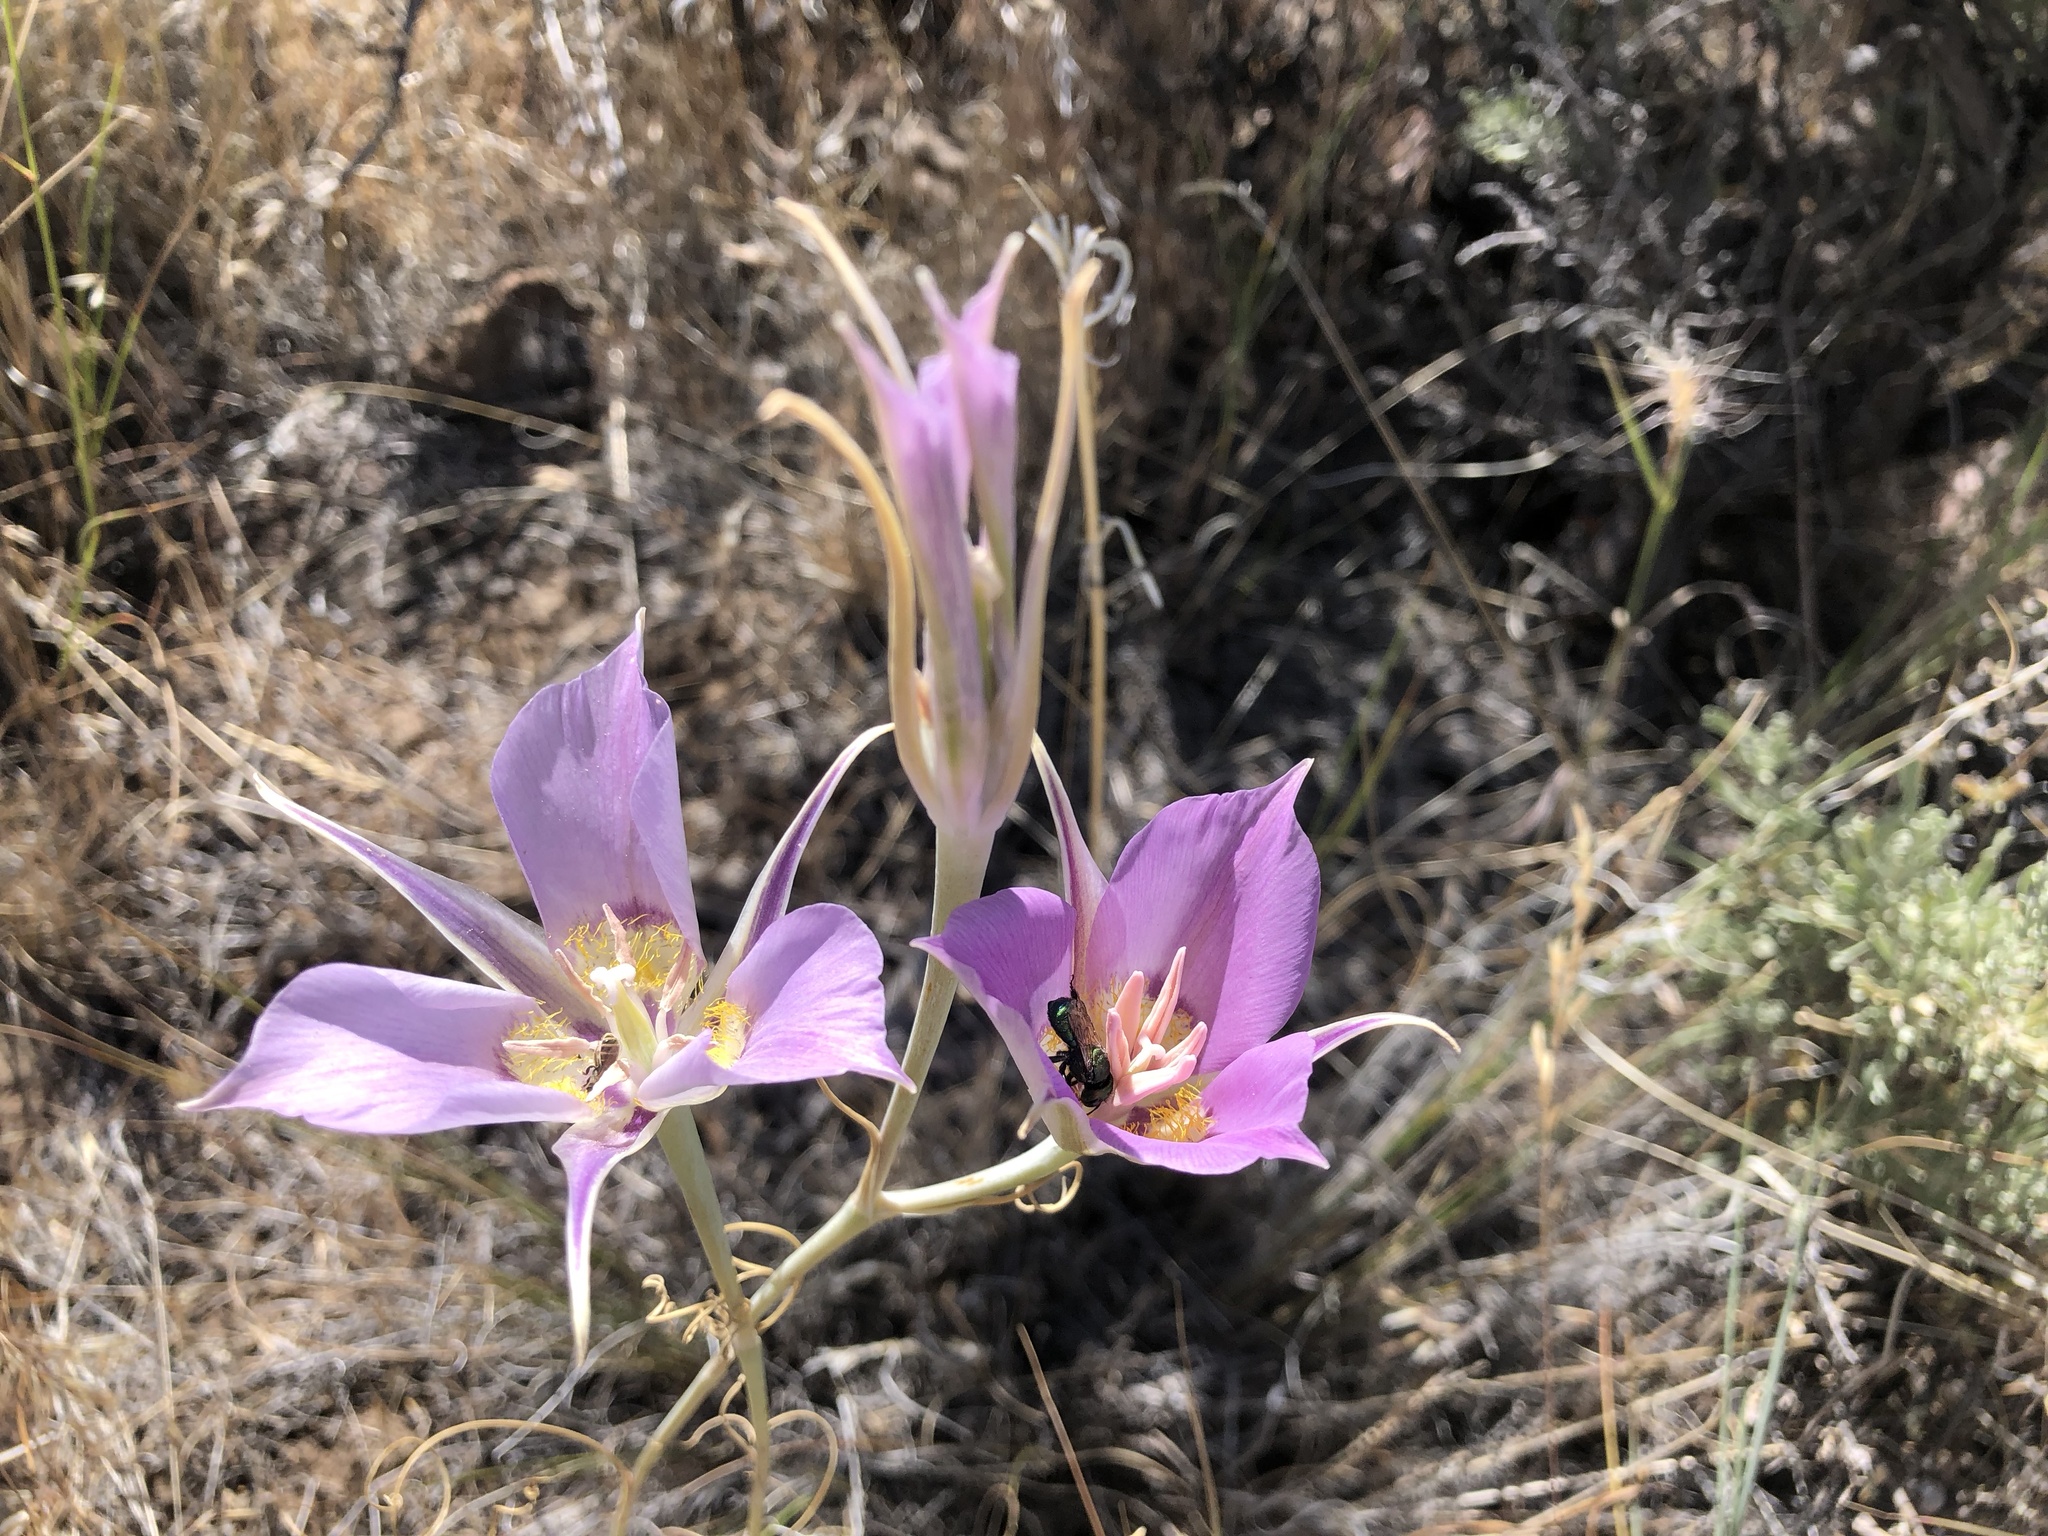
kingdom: Plantae
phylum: Tracheophyta
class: Liliopsida
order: Liliales
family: Liliaceae
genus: Calochortus
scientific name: Calochortus macrocarpus
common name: Green-band mariposa lily
